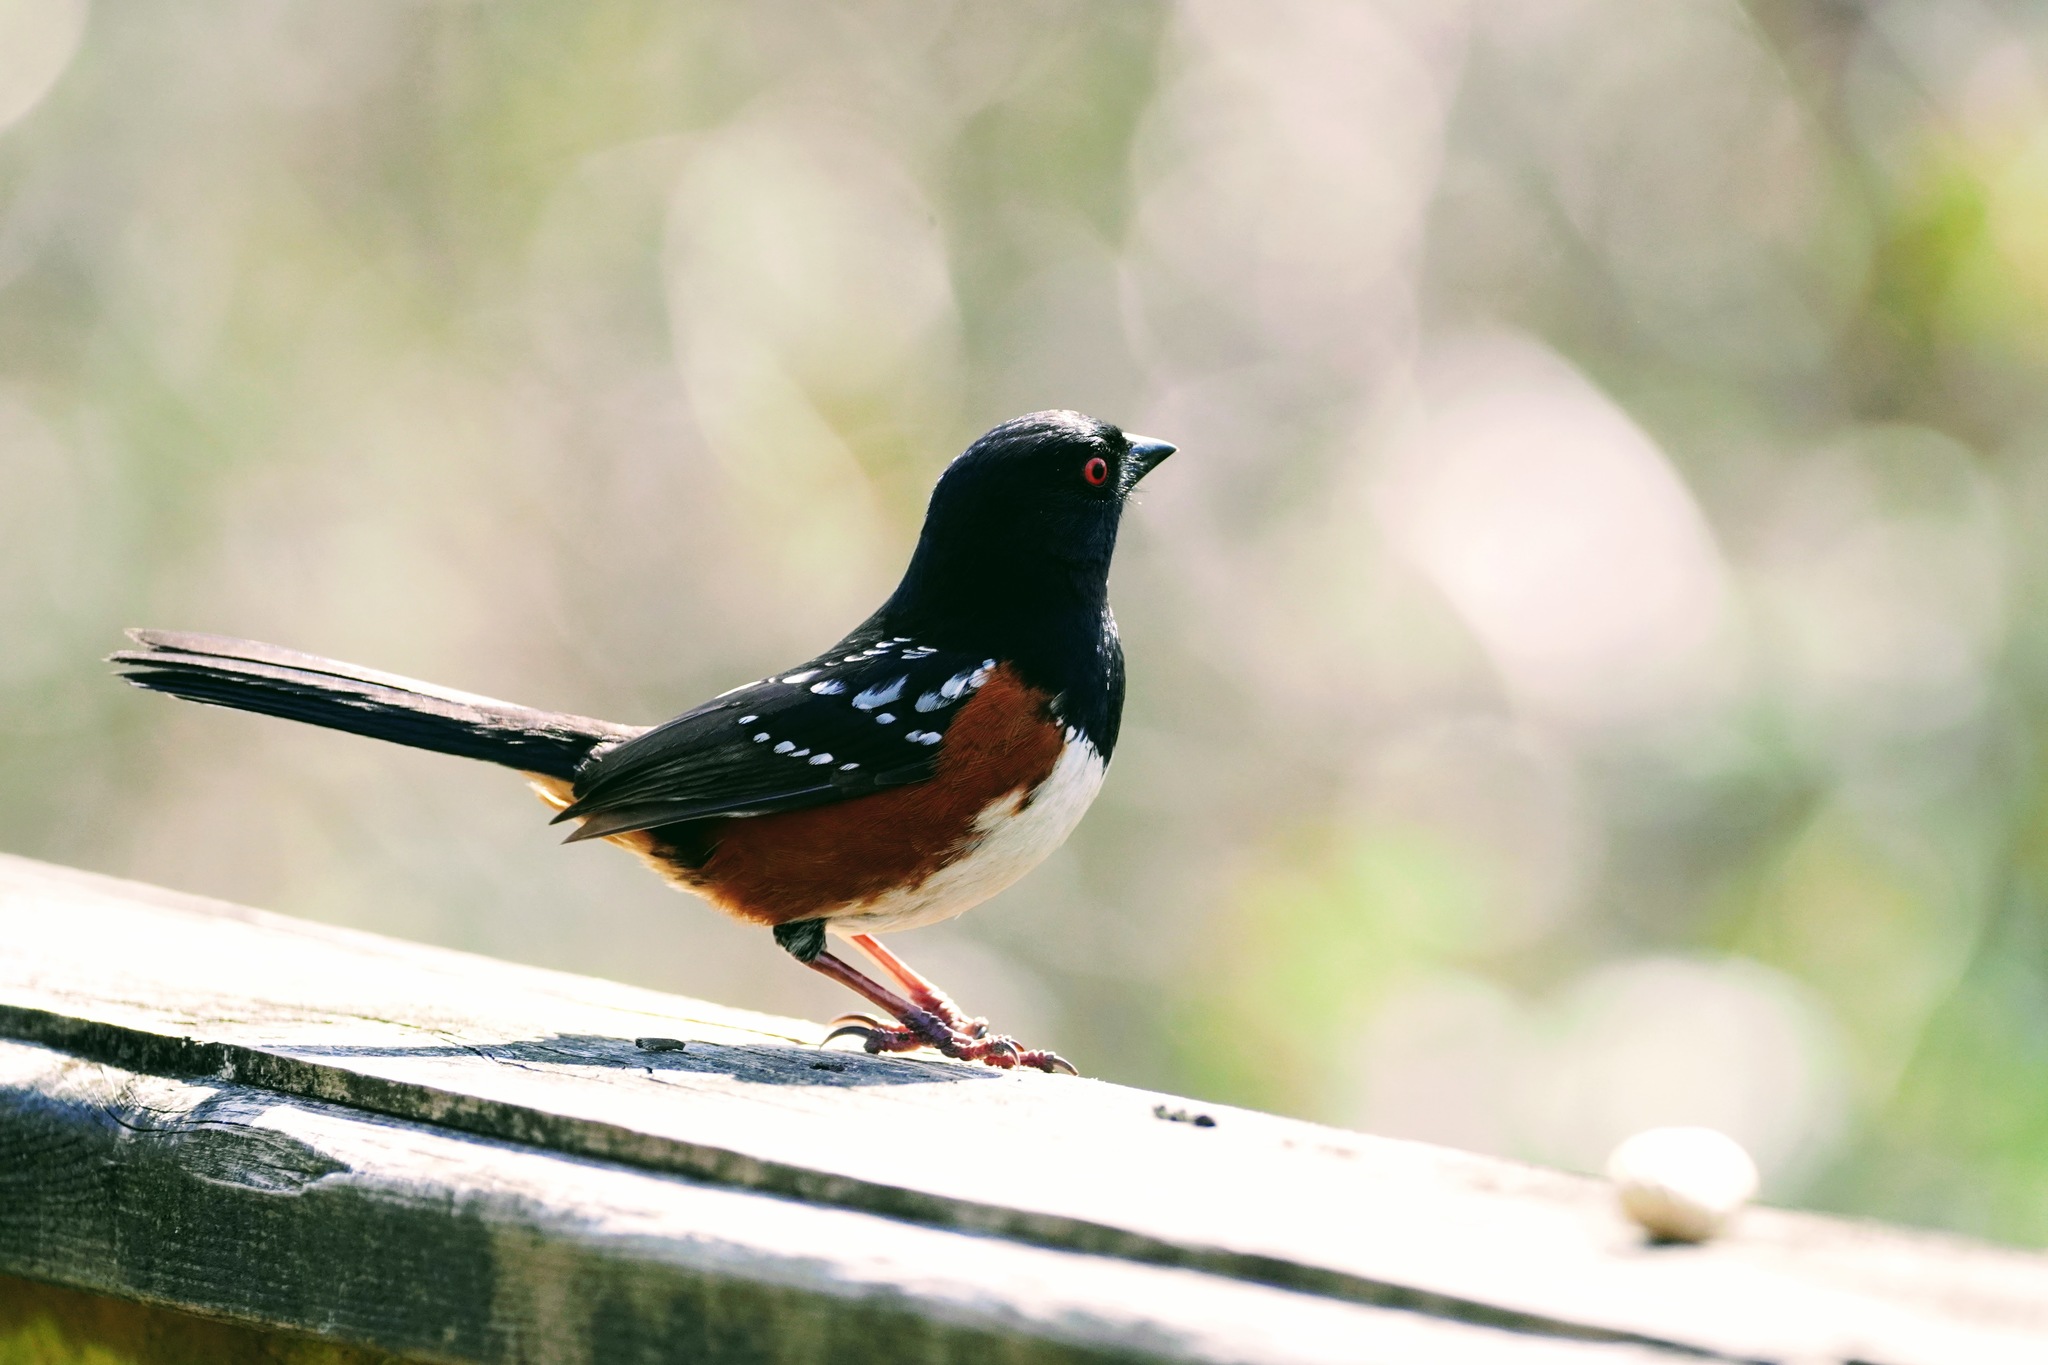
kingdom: Animalia
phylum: Chordata
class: Aves
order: Passeriformes
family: Passerellidae
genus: Pipilo
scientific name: Pipilo maculatus
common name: Spotted towhee
